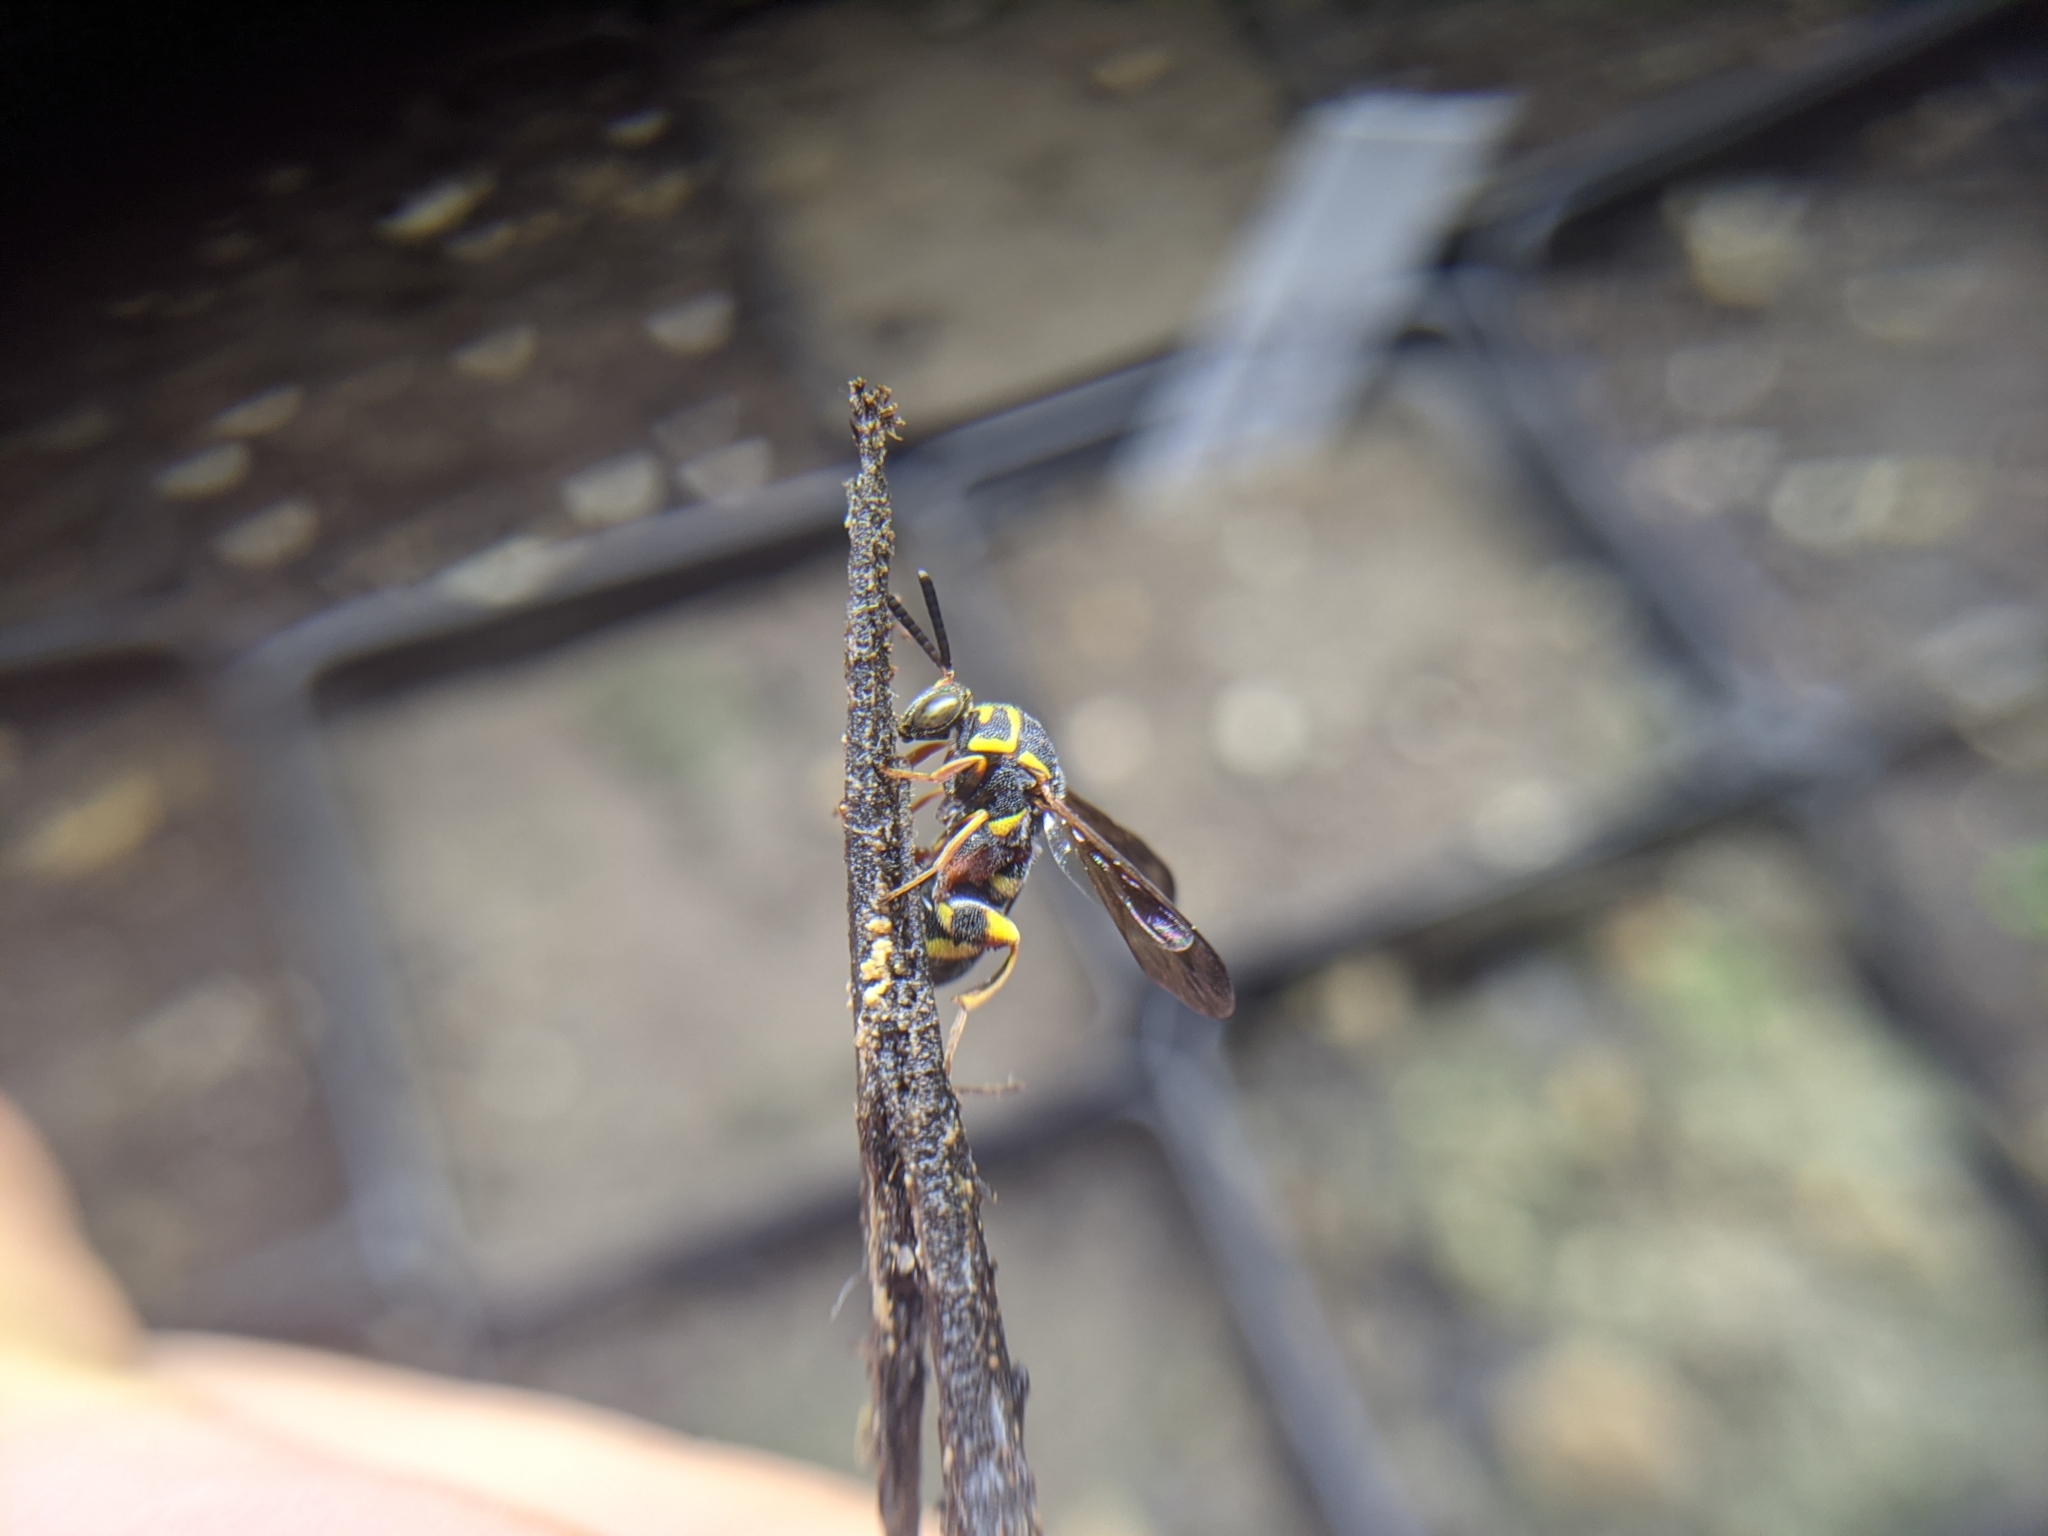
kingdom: Animalia
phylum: Arthropoda
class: Insecta
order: Hymenoptera
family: Leucospidae
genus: Leucospis
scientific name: Leucospis affinis
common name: Wasp
